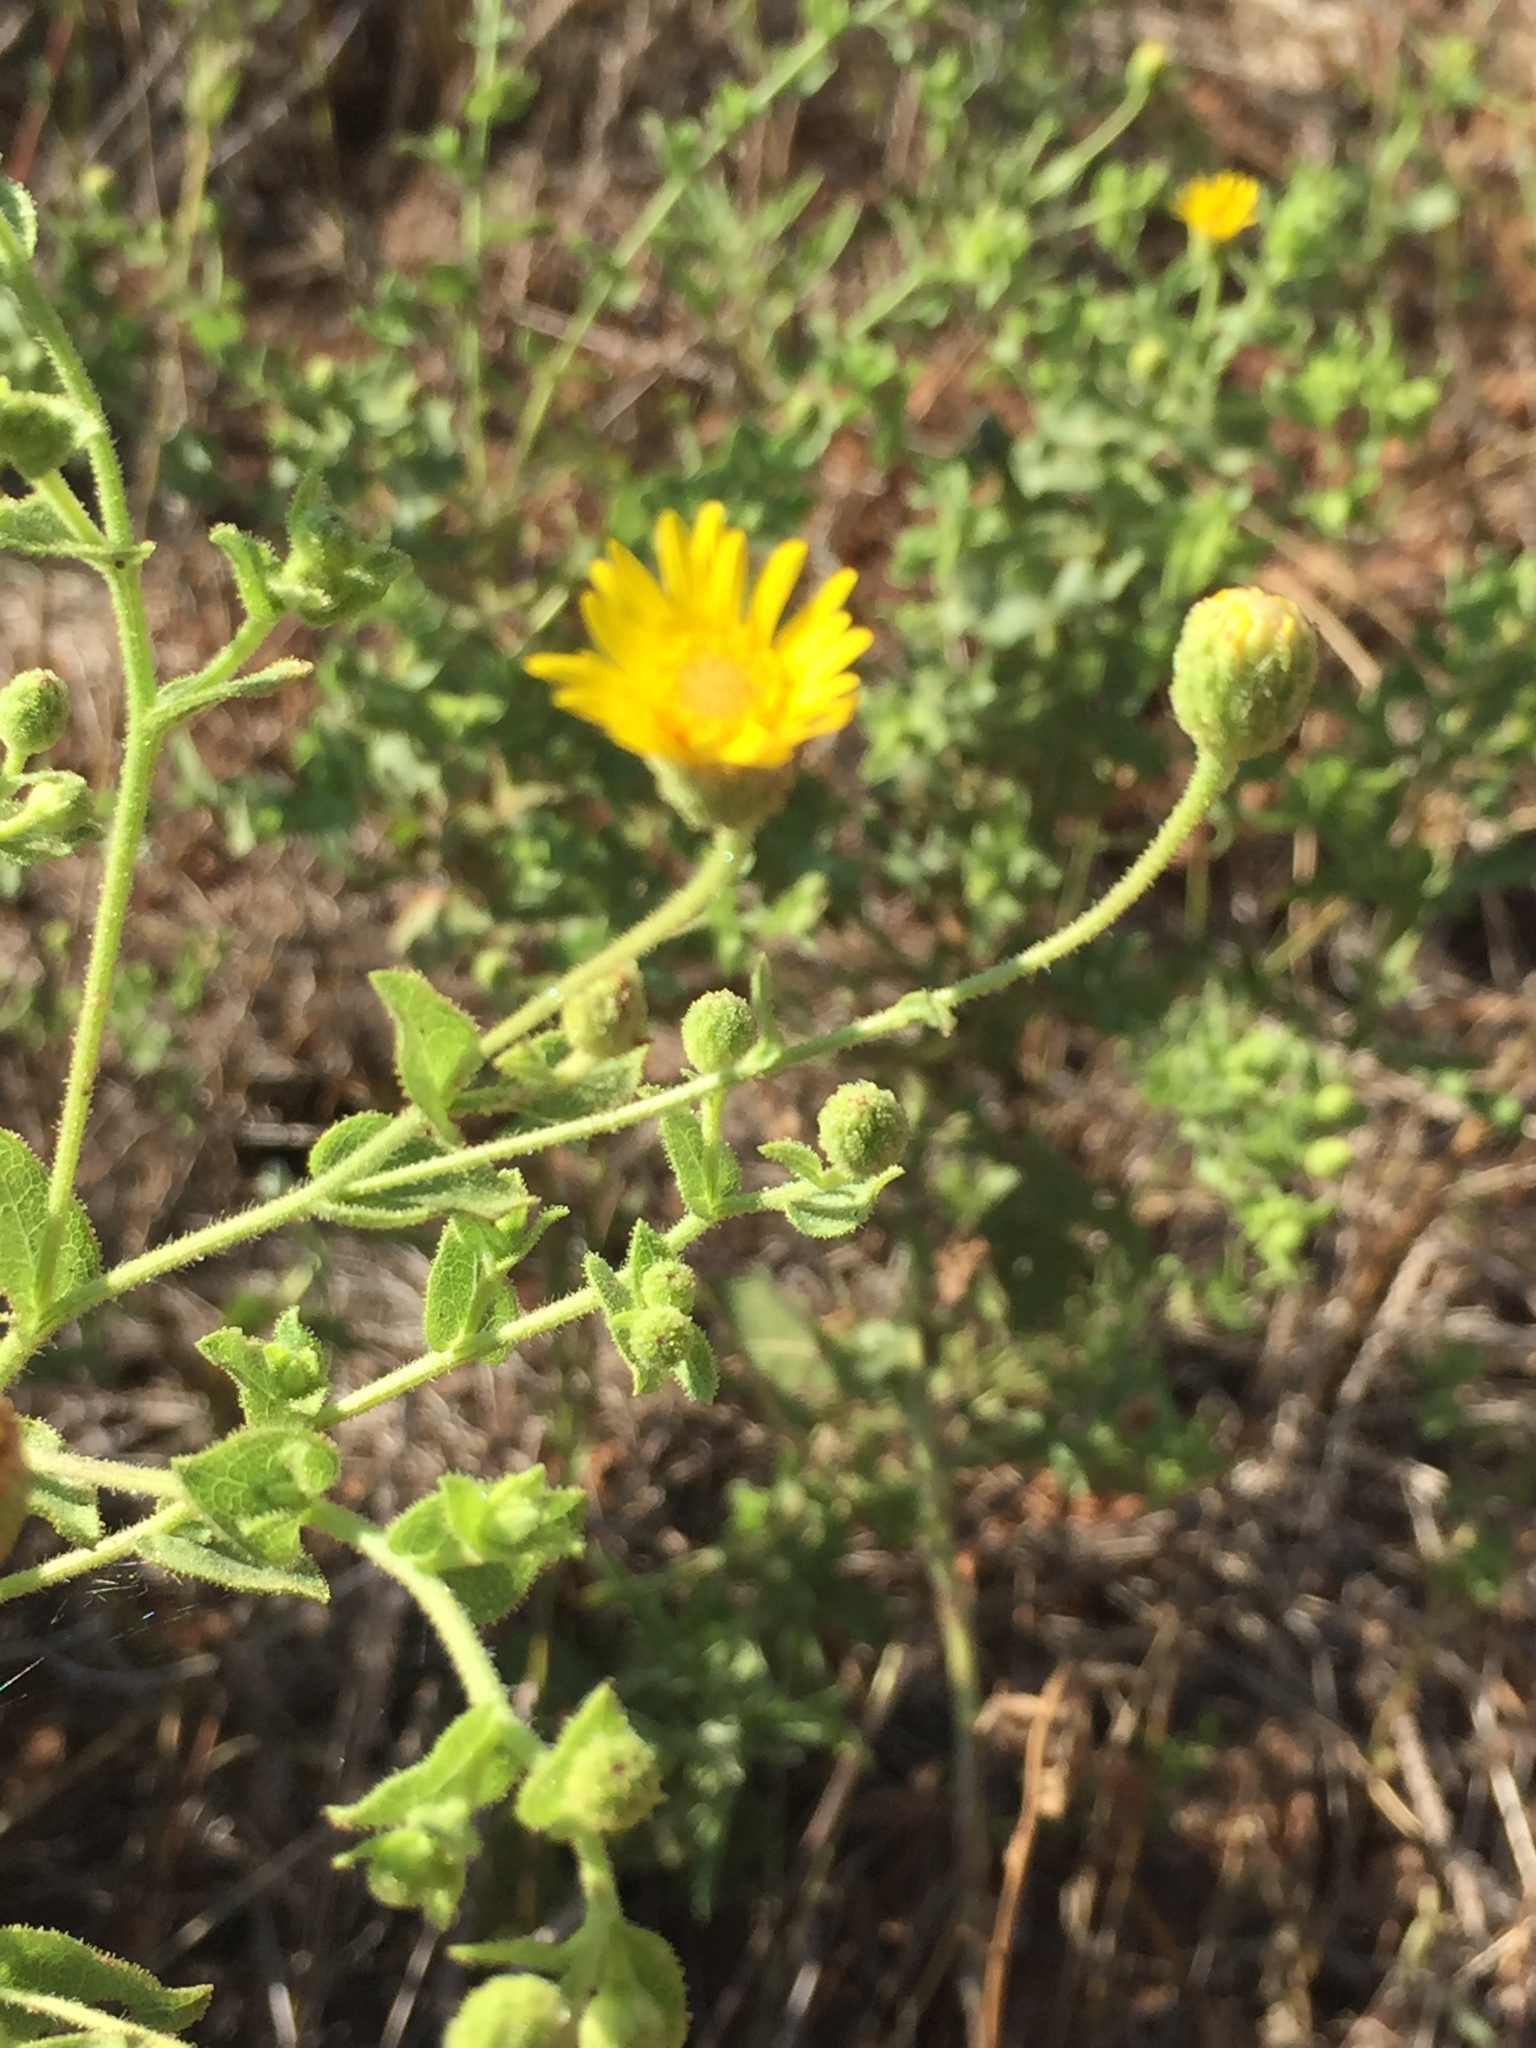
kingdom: Plantae
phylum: Tracheophyta
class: Magnoliopsida
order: Asterales
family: Asteraceae
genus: Heterotheca
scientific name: Heterotheca subaxillaris
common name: Camphorweed
